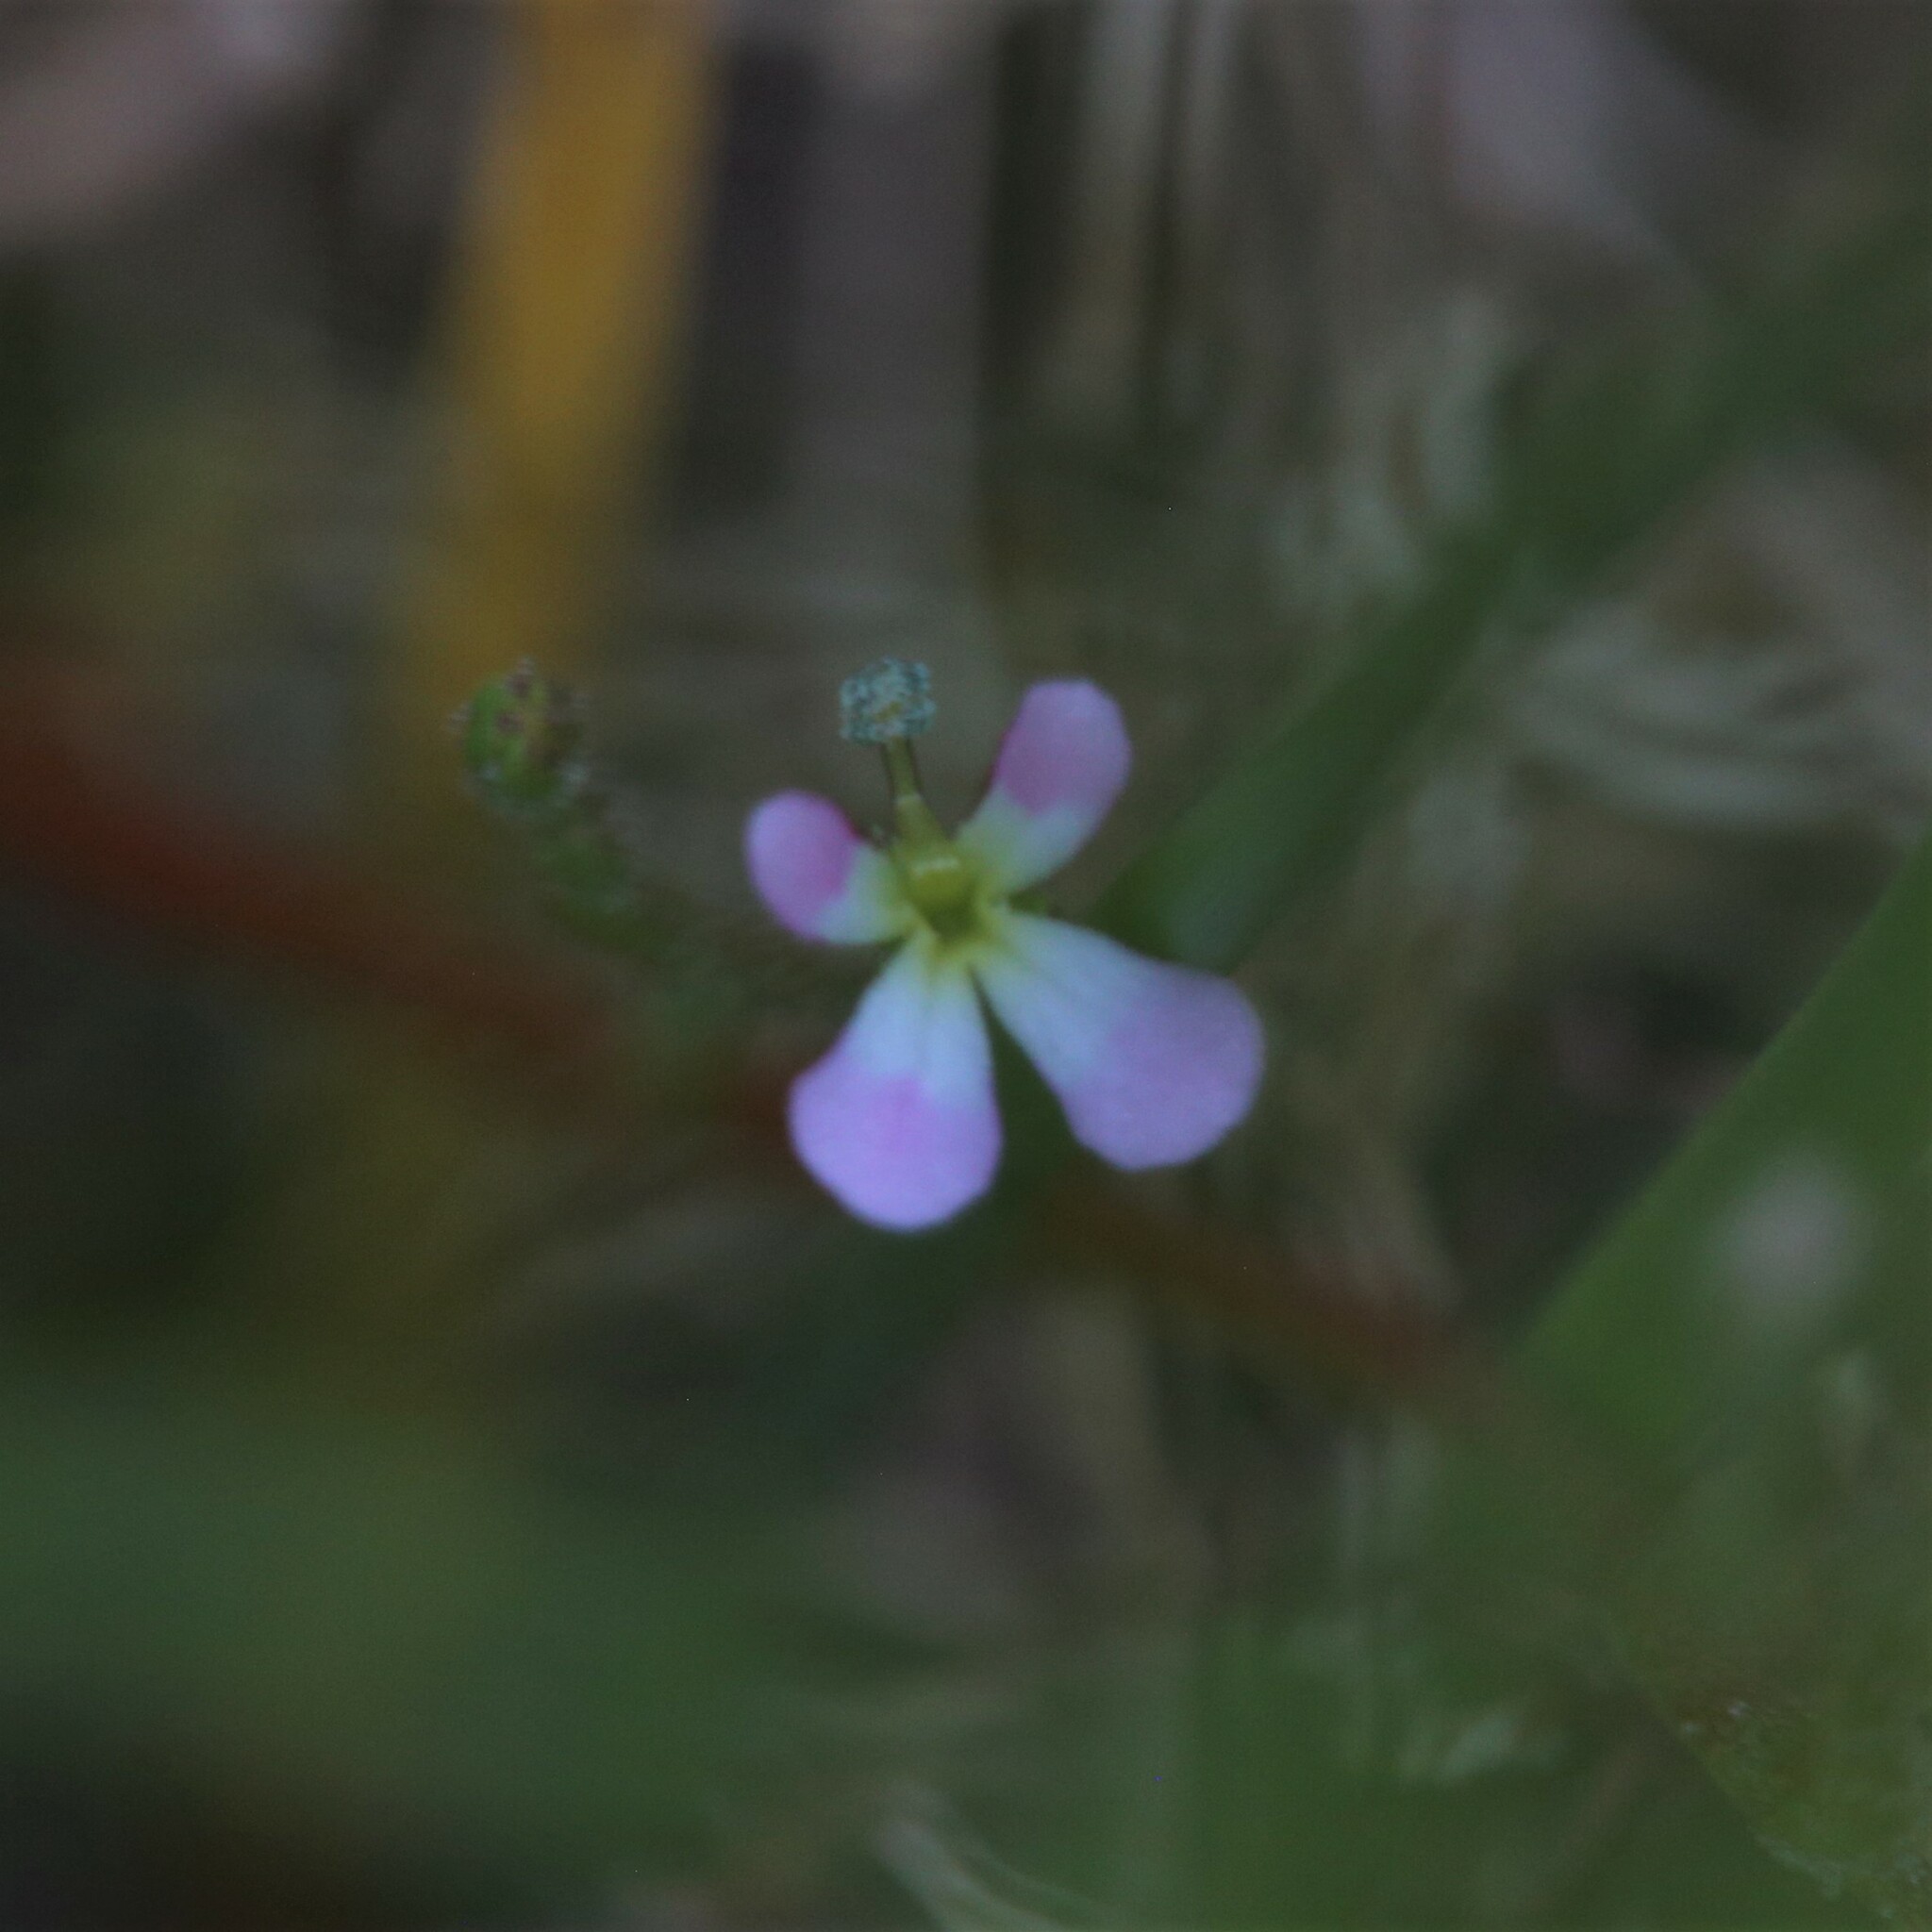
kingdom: Plantae
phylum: Tracheophyta
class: Magnoliopsida
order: Asterales
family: Stylidiaceae
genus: Stylidium
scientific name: Stylidium inundatum
